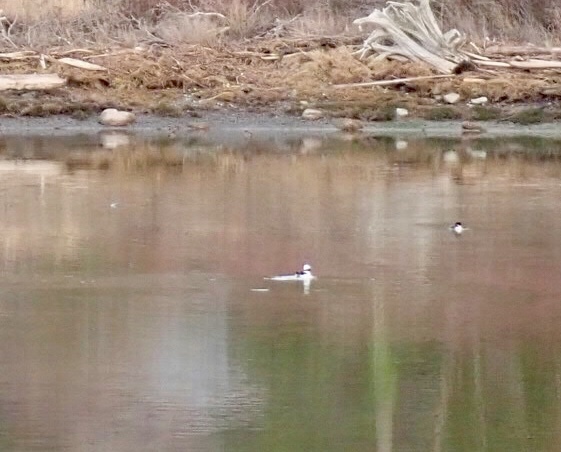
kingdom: Animalia
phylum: Chordata
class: Aves
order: Anseriformes
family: Anatidae
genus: Bucephala
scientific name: Bucephala albeola
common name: Bufflehead
